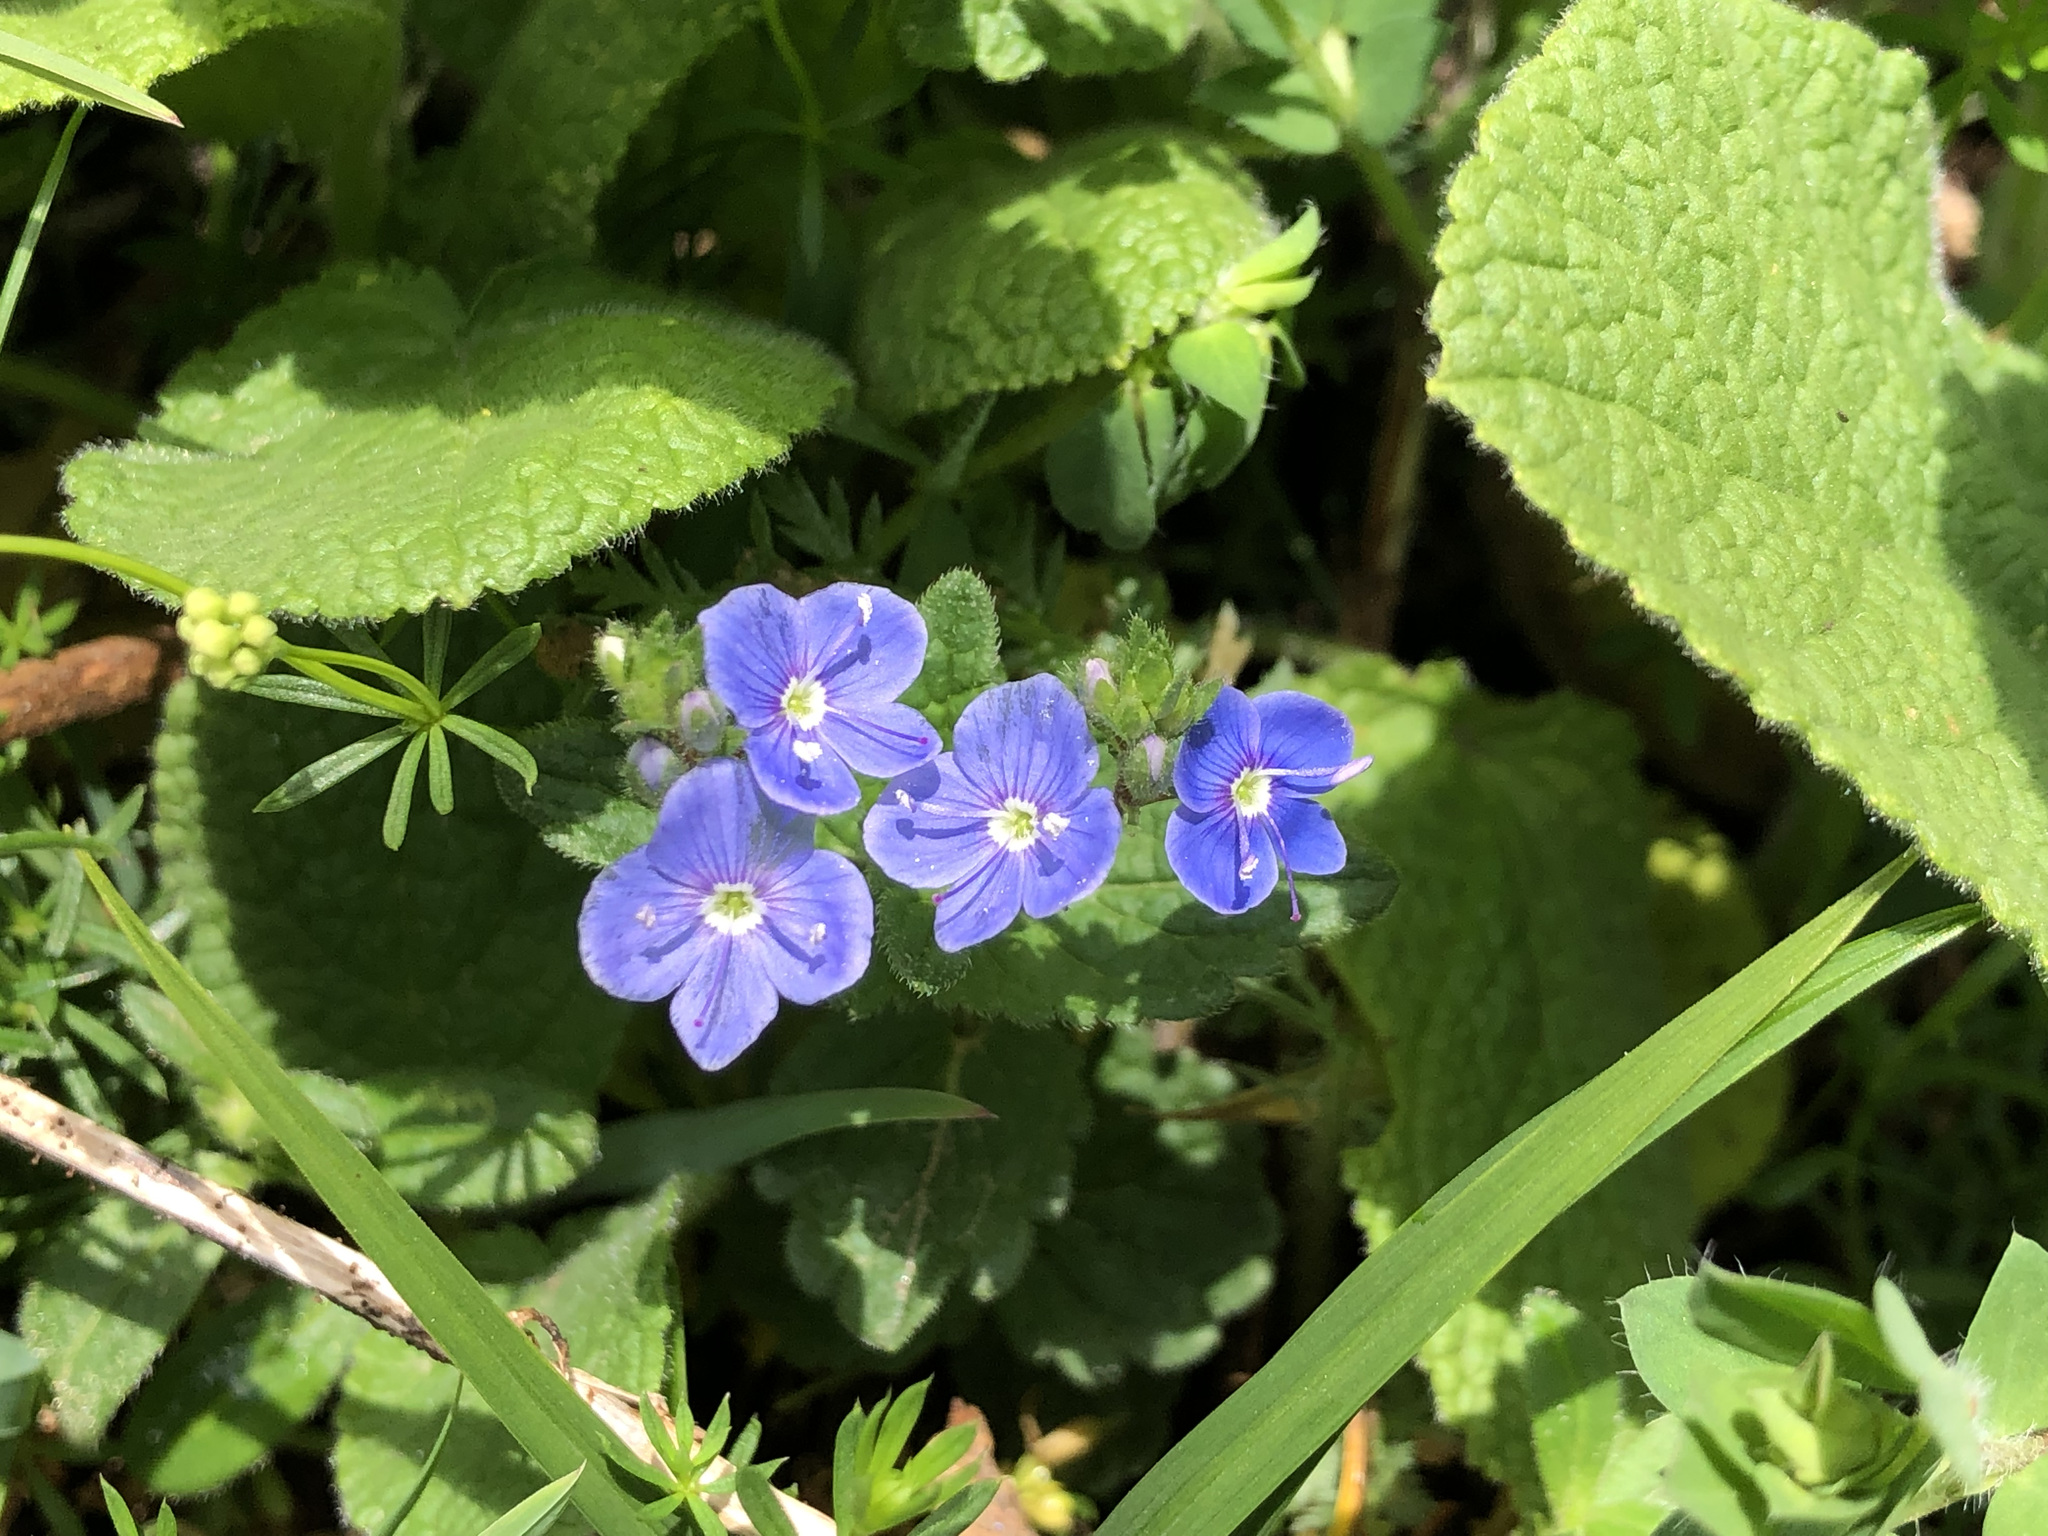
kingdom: Plantae
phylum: Tracheophyta
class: Magnoliopsida
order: Lamiales
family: Plantaginaceae
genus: Veronica
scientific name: Veronica chamaedrys
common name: Germander speedwell
